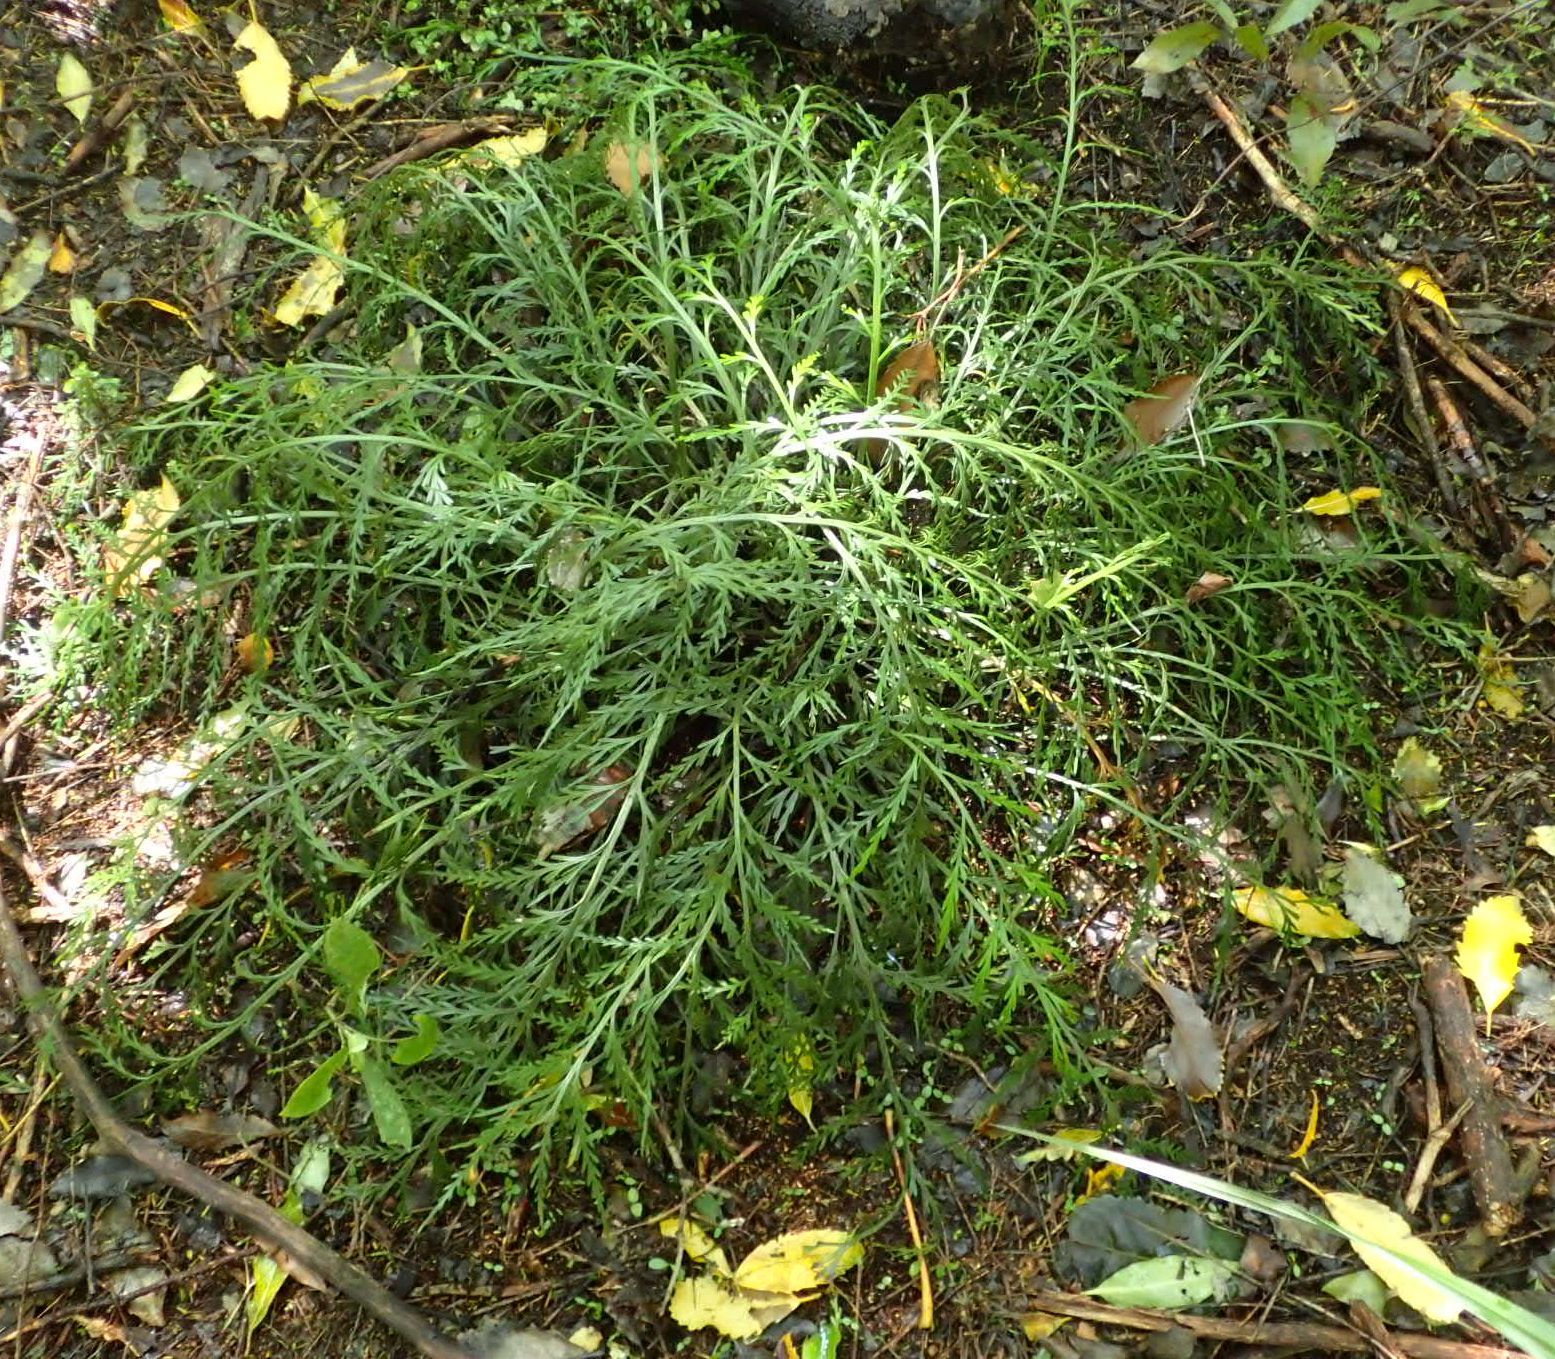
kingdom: Plantae
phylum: Tracheophyta
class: Polypodiopsida
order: Polypodiales
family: Aspleniaceae
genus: Asplenium
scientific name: Asplenium flaccidum
